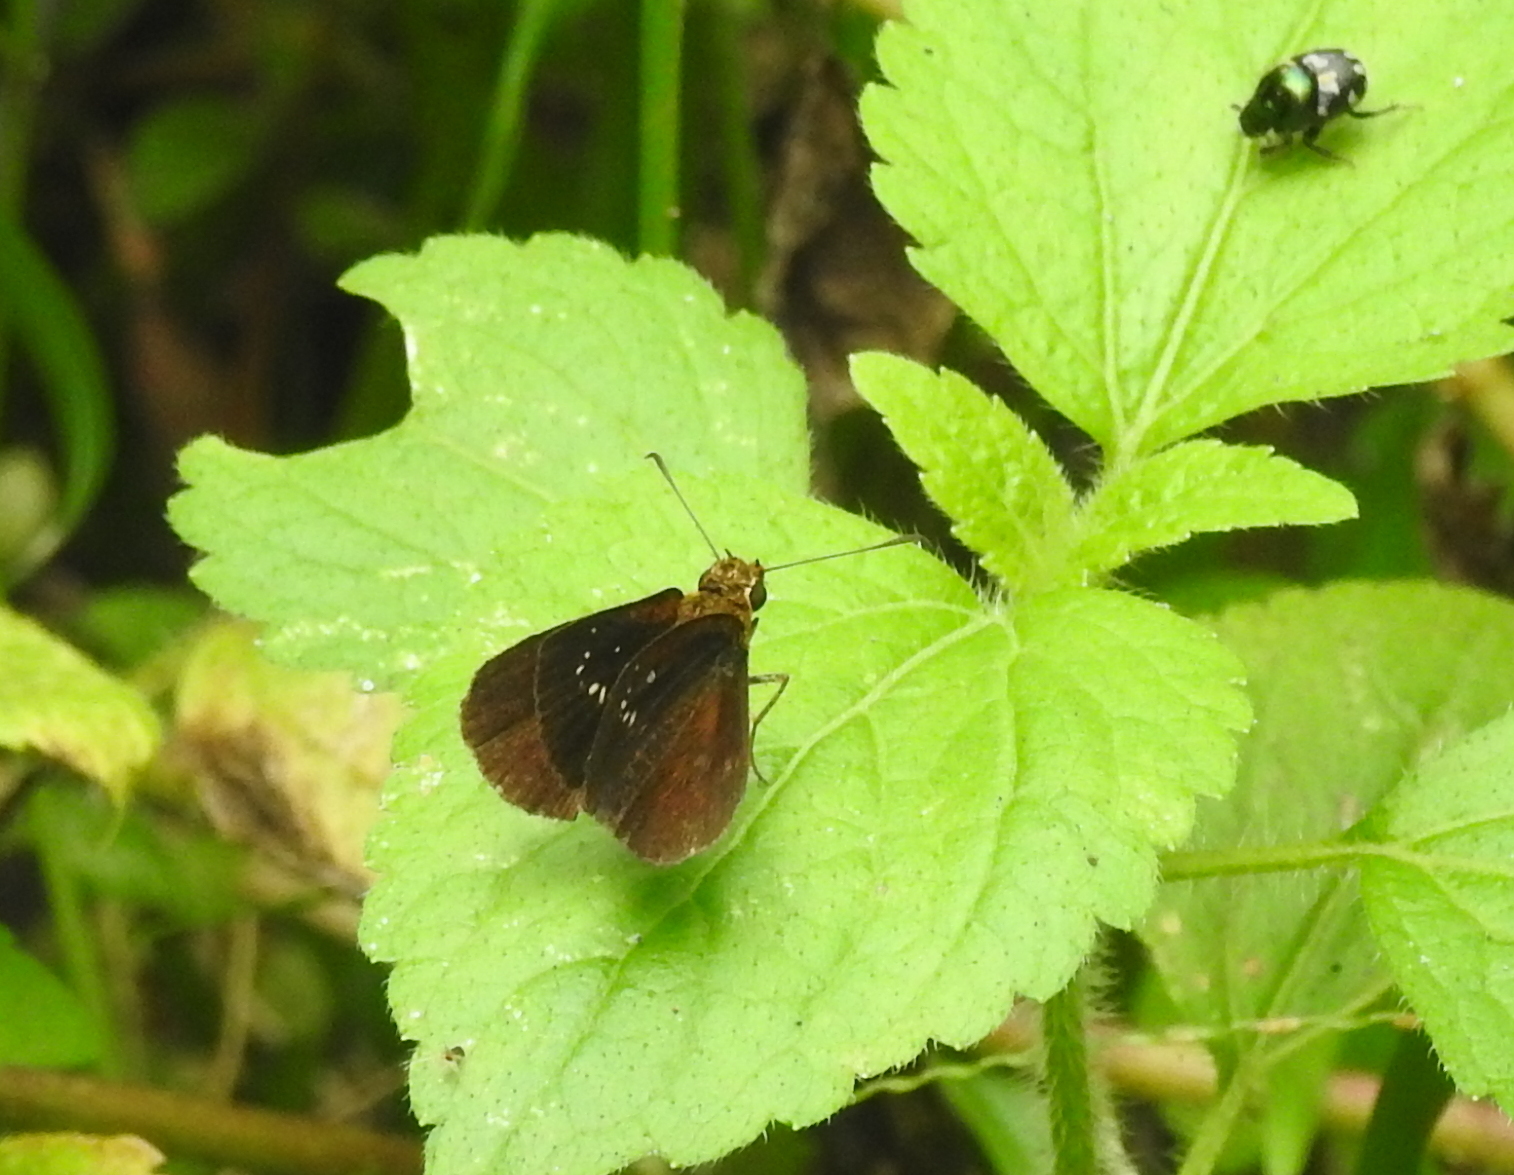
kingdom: Animalia
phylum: Arthropoda
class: Insecta
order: Lepidoptera
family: Hesperiidae
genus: Iambrix
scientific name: Iambrix salsala
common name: Chestnut bob
